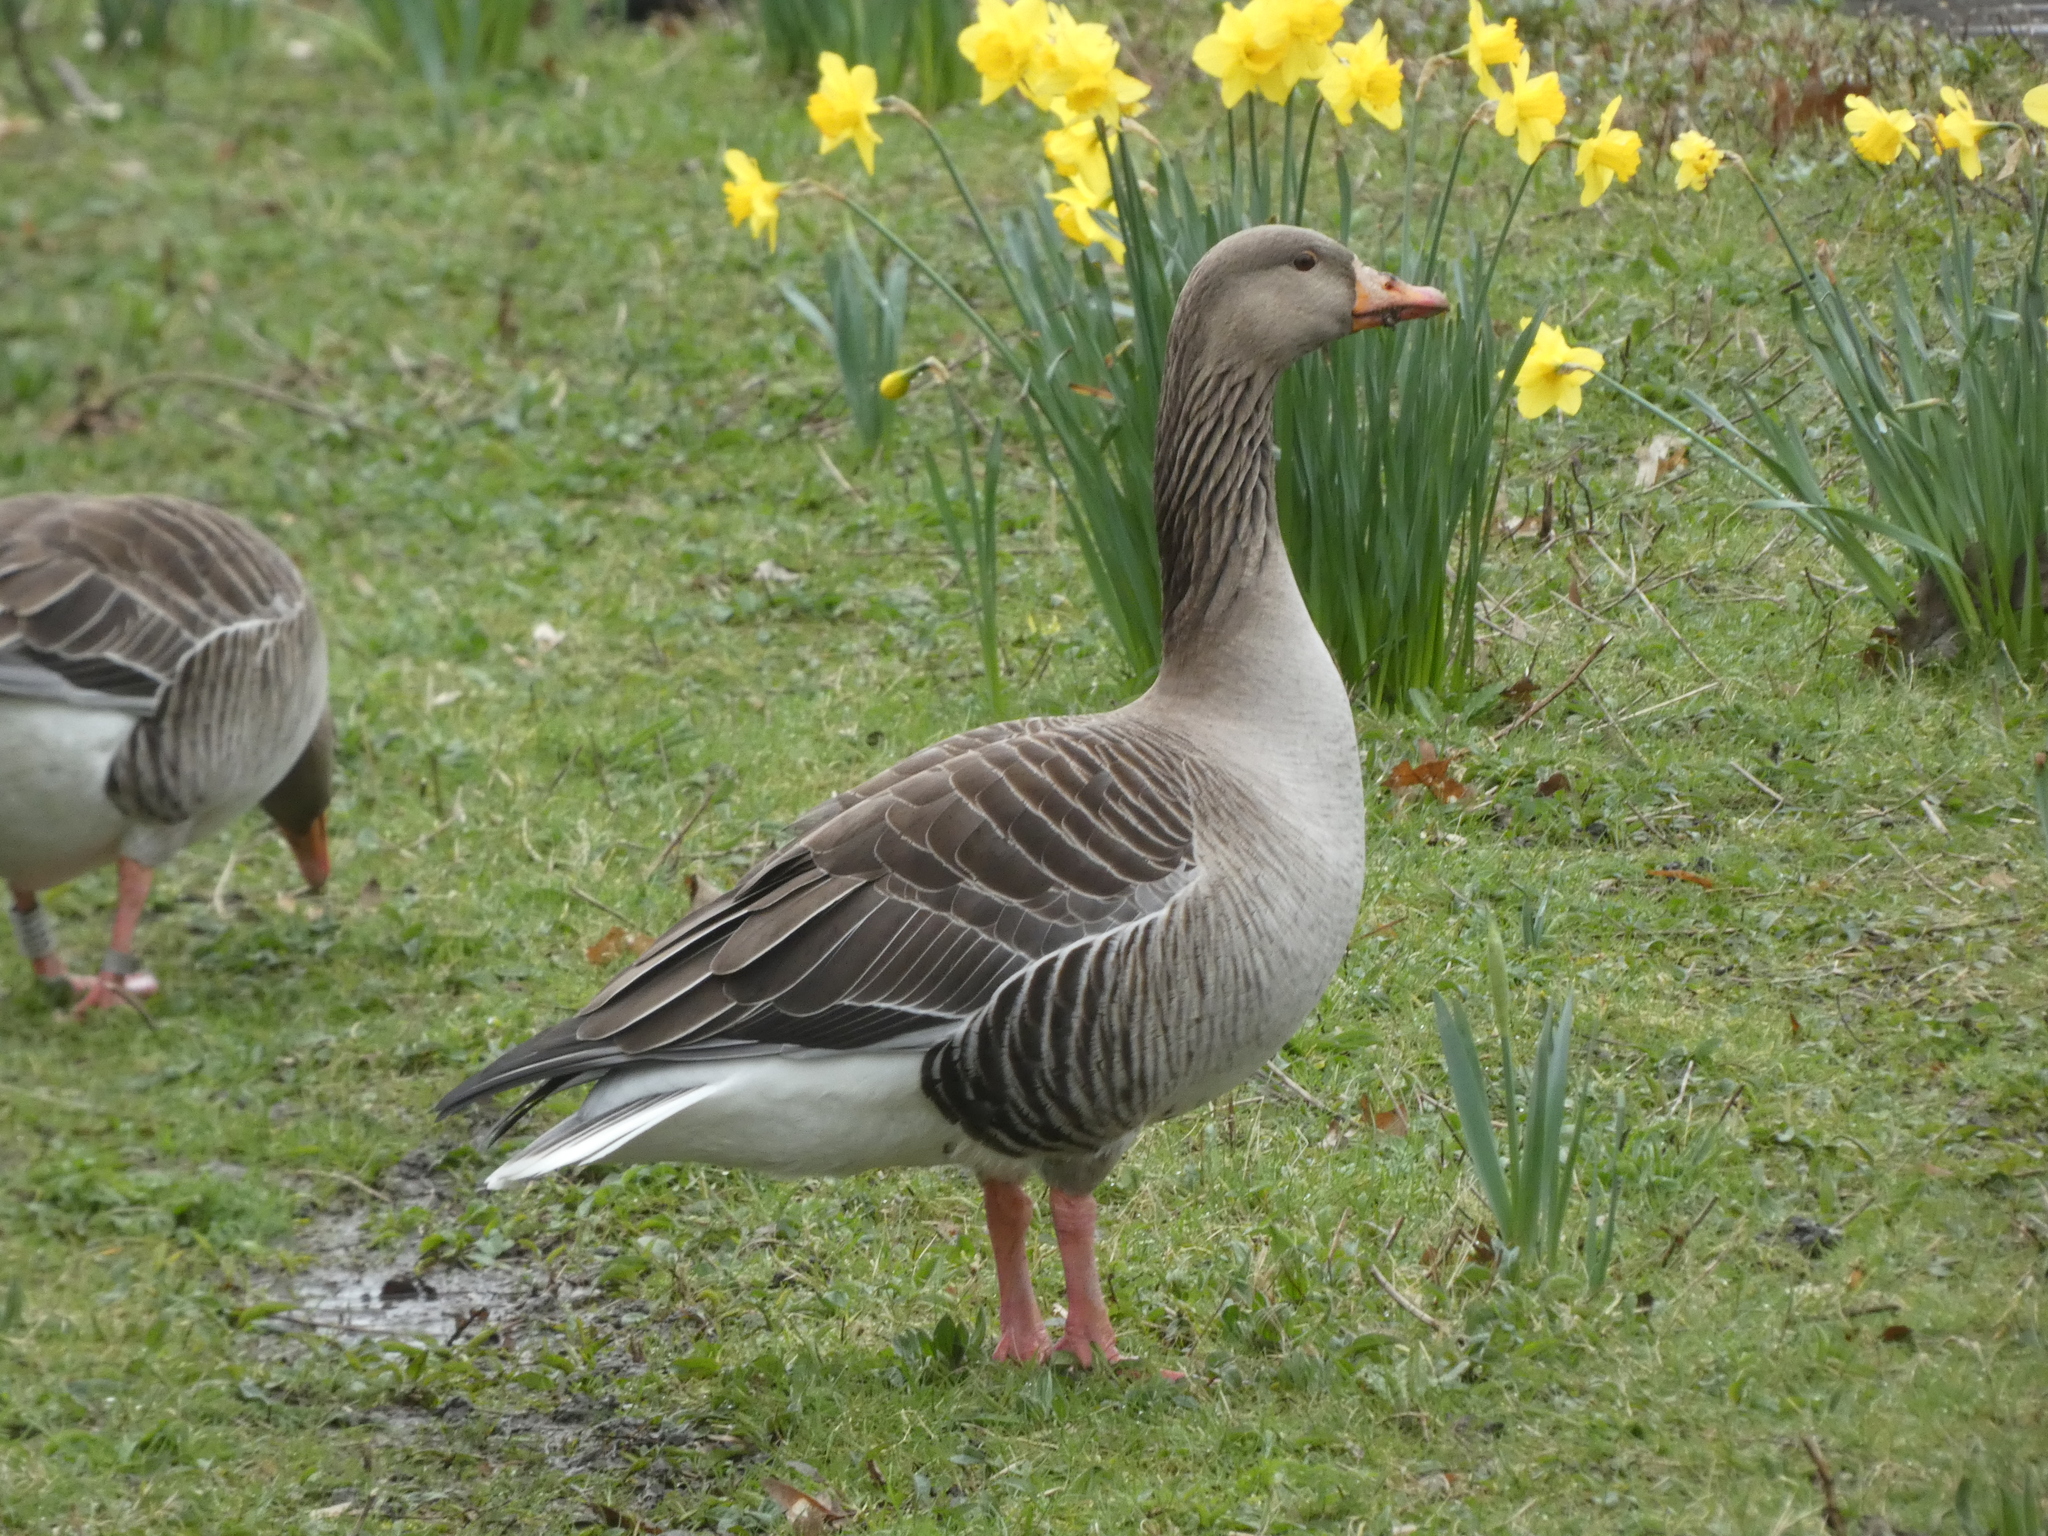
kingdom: Animalia
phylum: Chordata
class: Aves
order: Anseriformes
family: Anatidae
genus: Anser
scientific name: Anser anser
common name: Greylag goose
